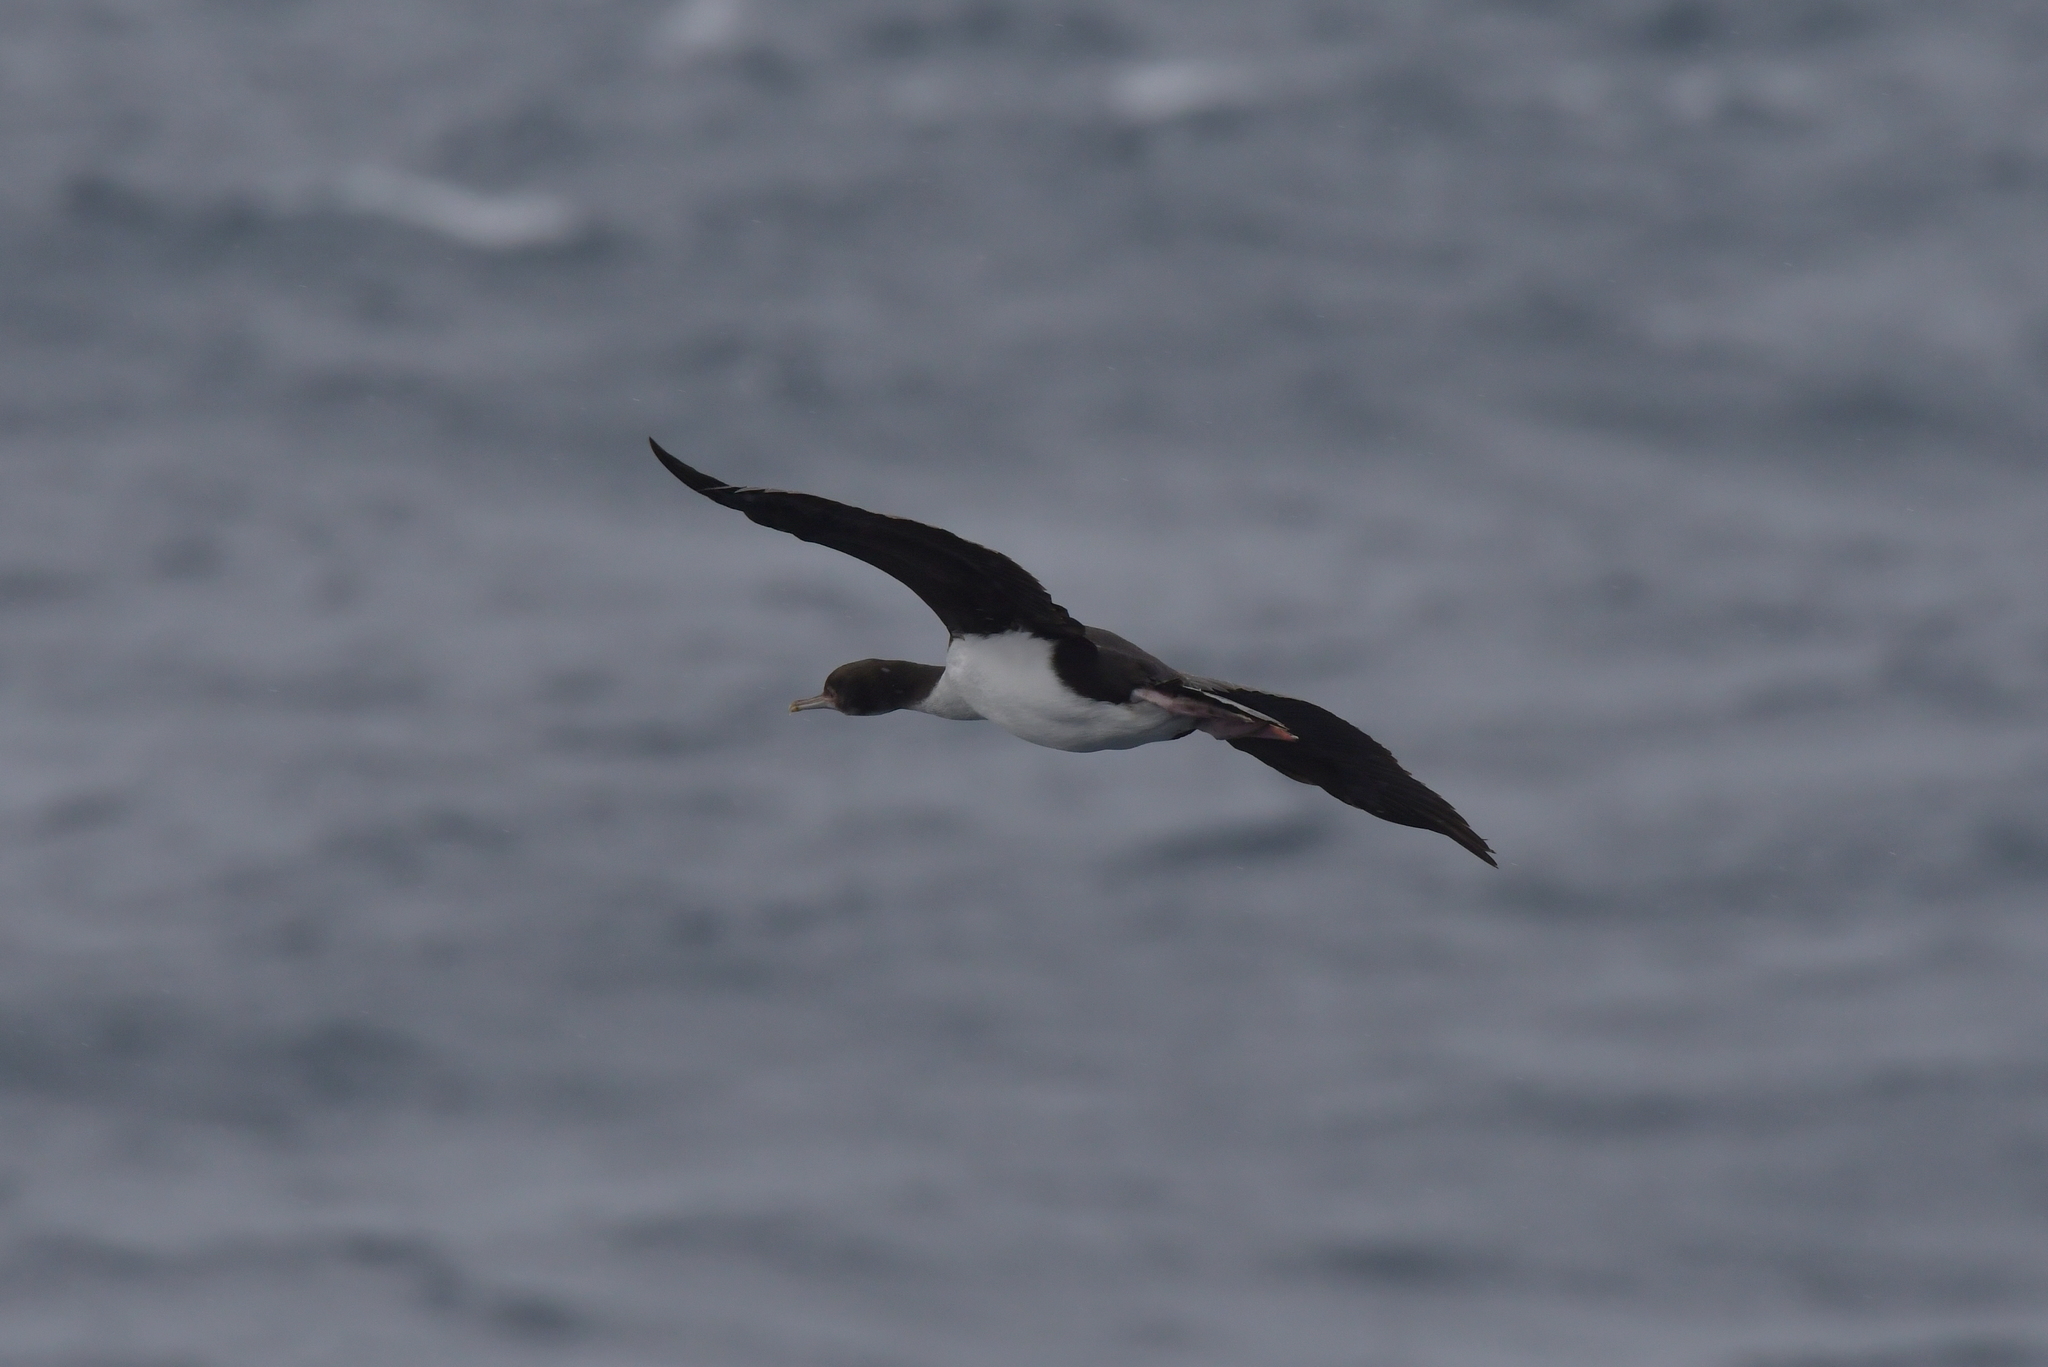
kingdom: Animalia
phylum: Chordata
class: Aves
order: Suliformes
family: Phalacrocoracidae
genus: Leucocarbo
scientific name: Leucocarbo ranfurlyi
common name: Bounty shag
